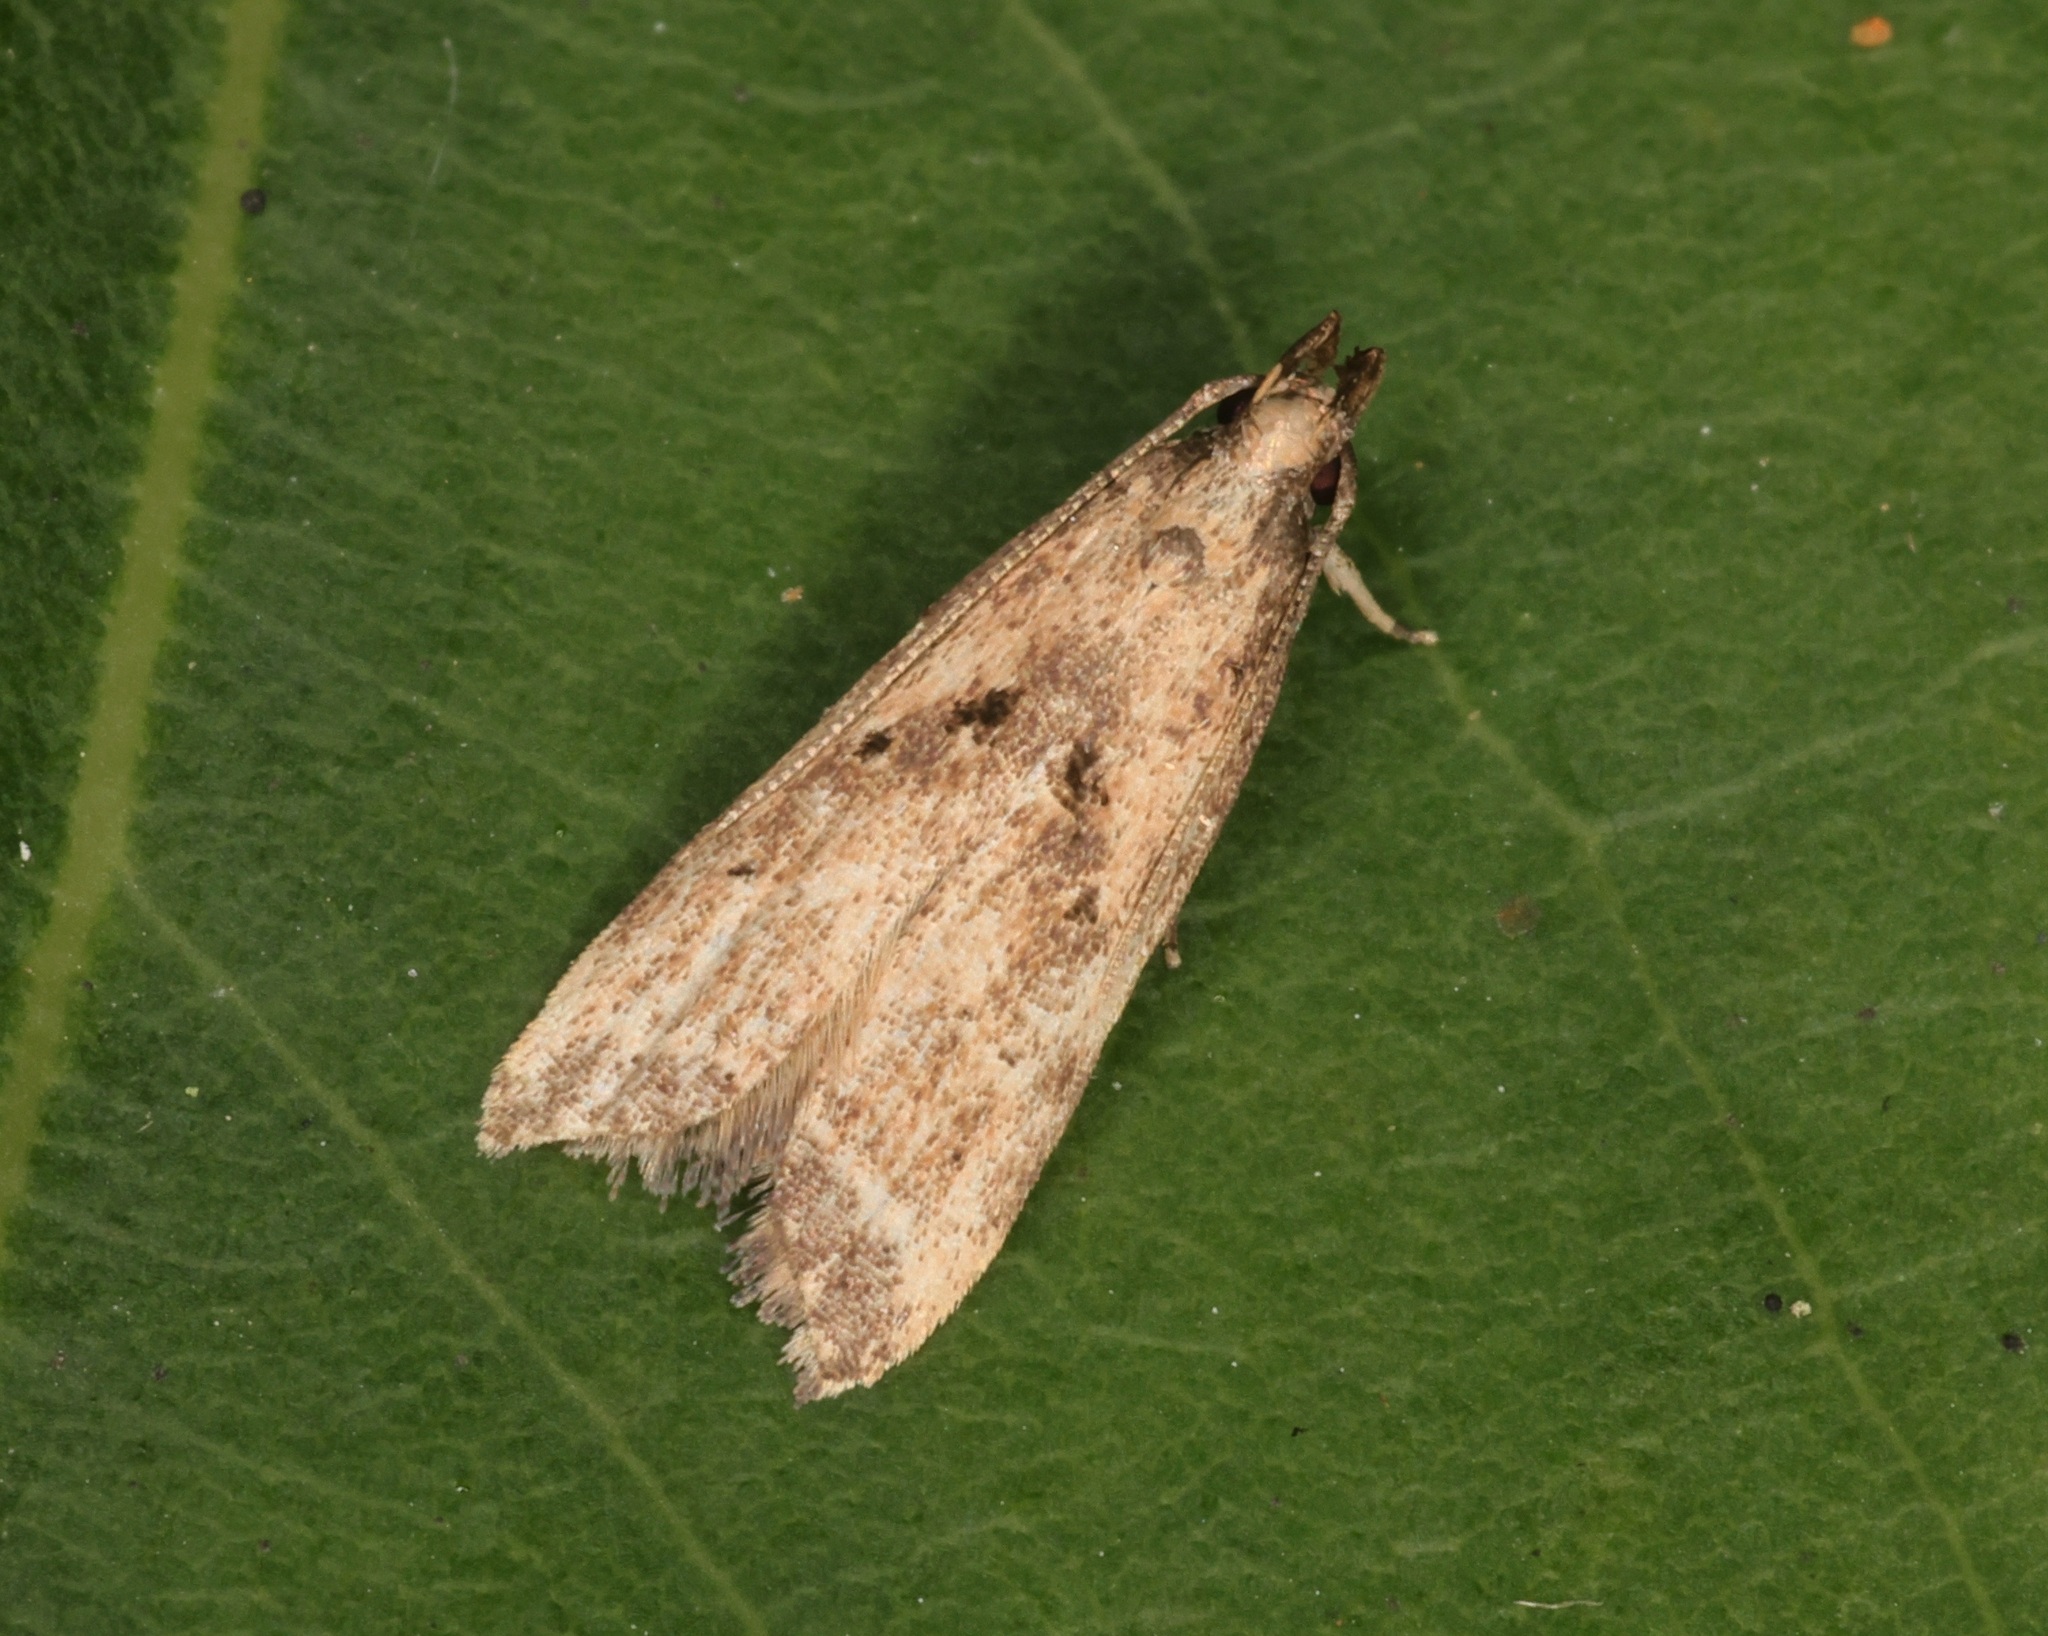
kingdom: Animalia
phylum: Arthropoda
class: Insecta
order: Lepidoptera
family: Gelechiidae
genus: Helcystogramma
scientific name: Helcystogramma hassenzanensis
